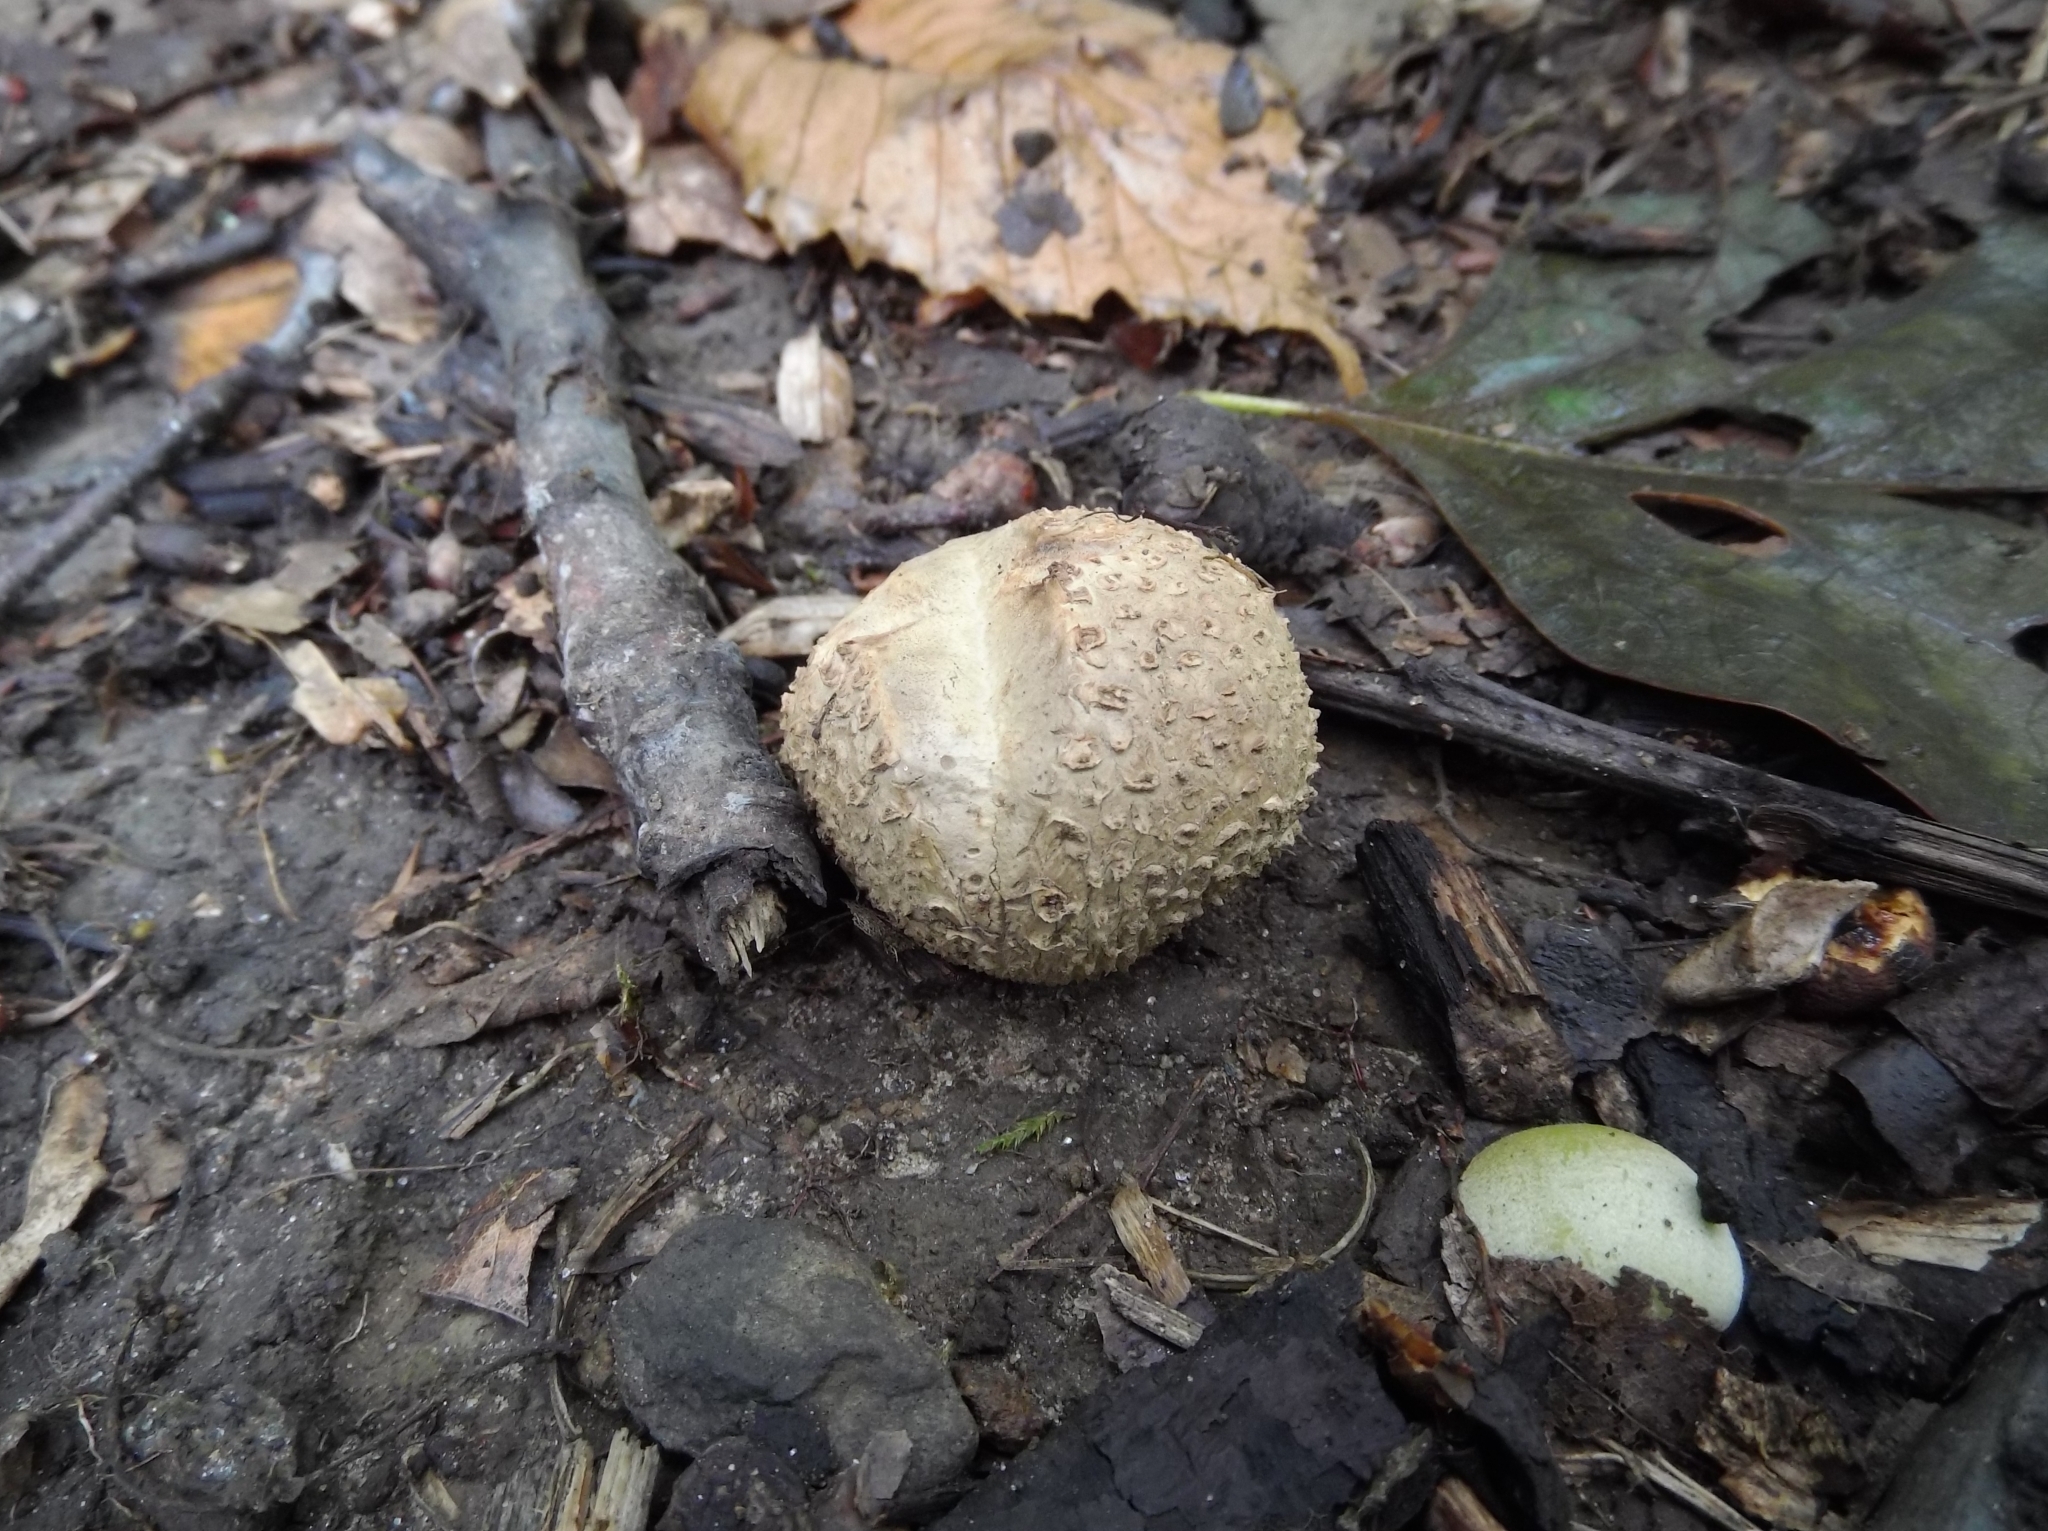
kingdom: Fungi
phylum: Basidiomycota
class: Agaricomycetes
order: Boletales
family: Sclerodermataceae
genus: Scleroderma
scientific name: Scleroderma citrinum
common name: Common earthball
